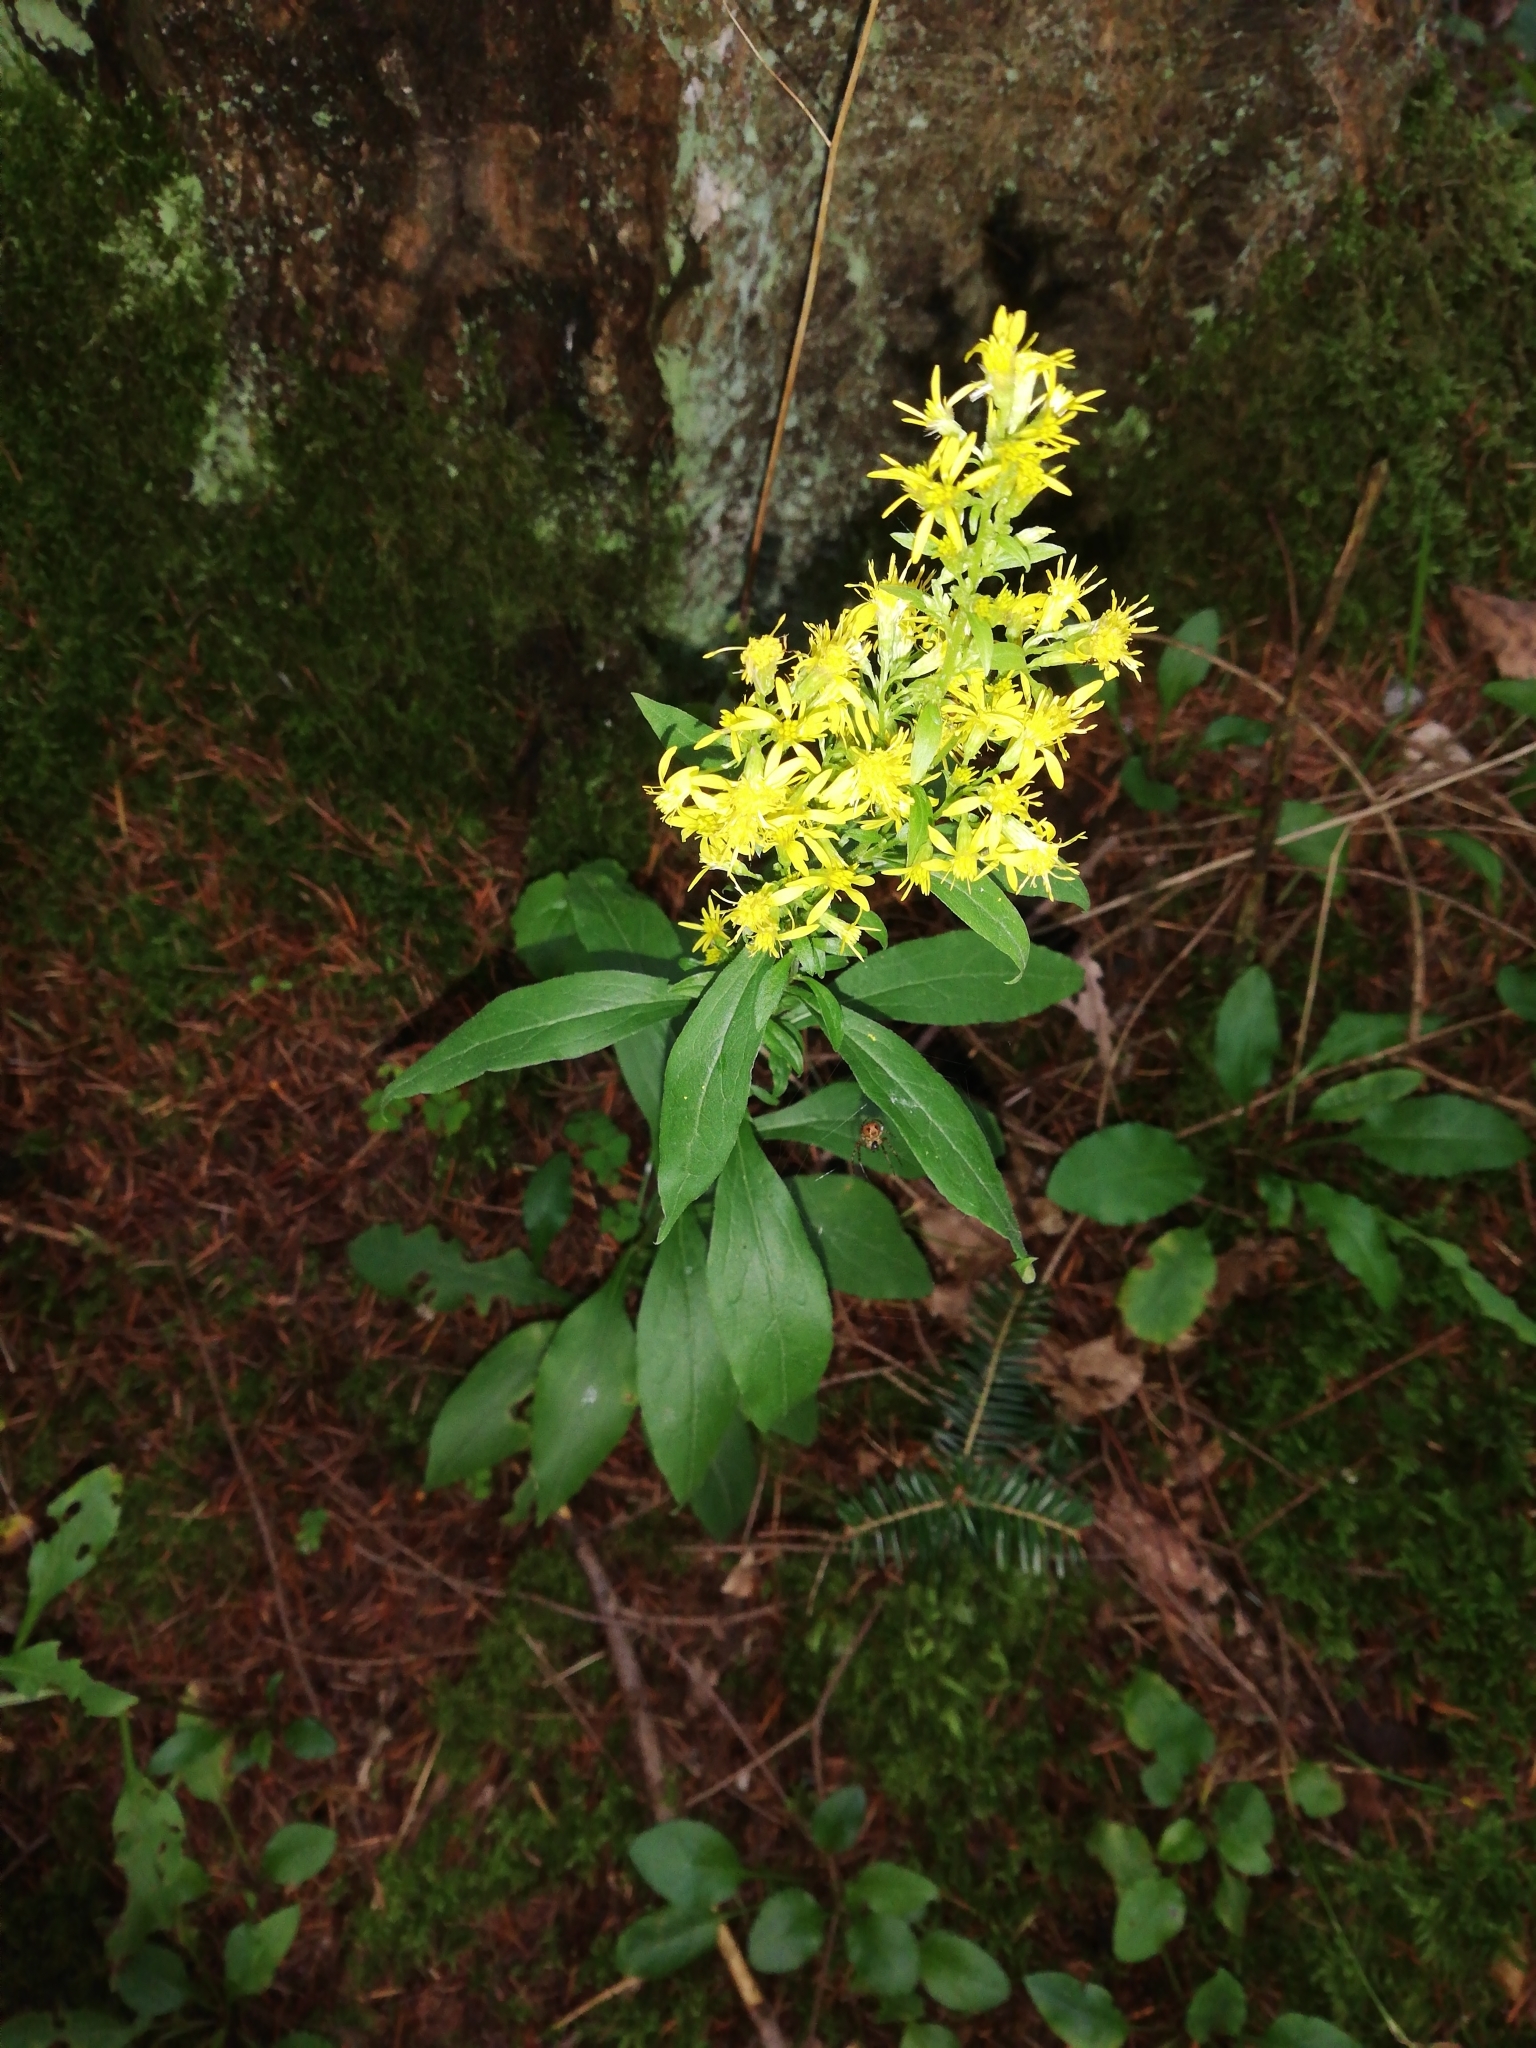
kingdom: Plantae
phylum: Tracheophyta
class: Magnoliopsida
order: Asterales
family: Asteraceae
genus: Solidago
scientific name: Solidago virgaurea
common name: Goldenrod
